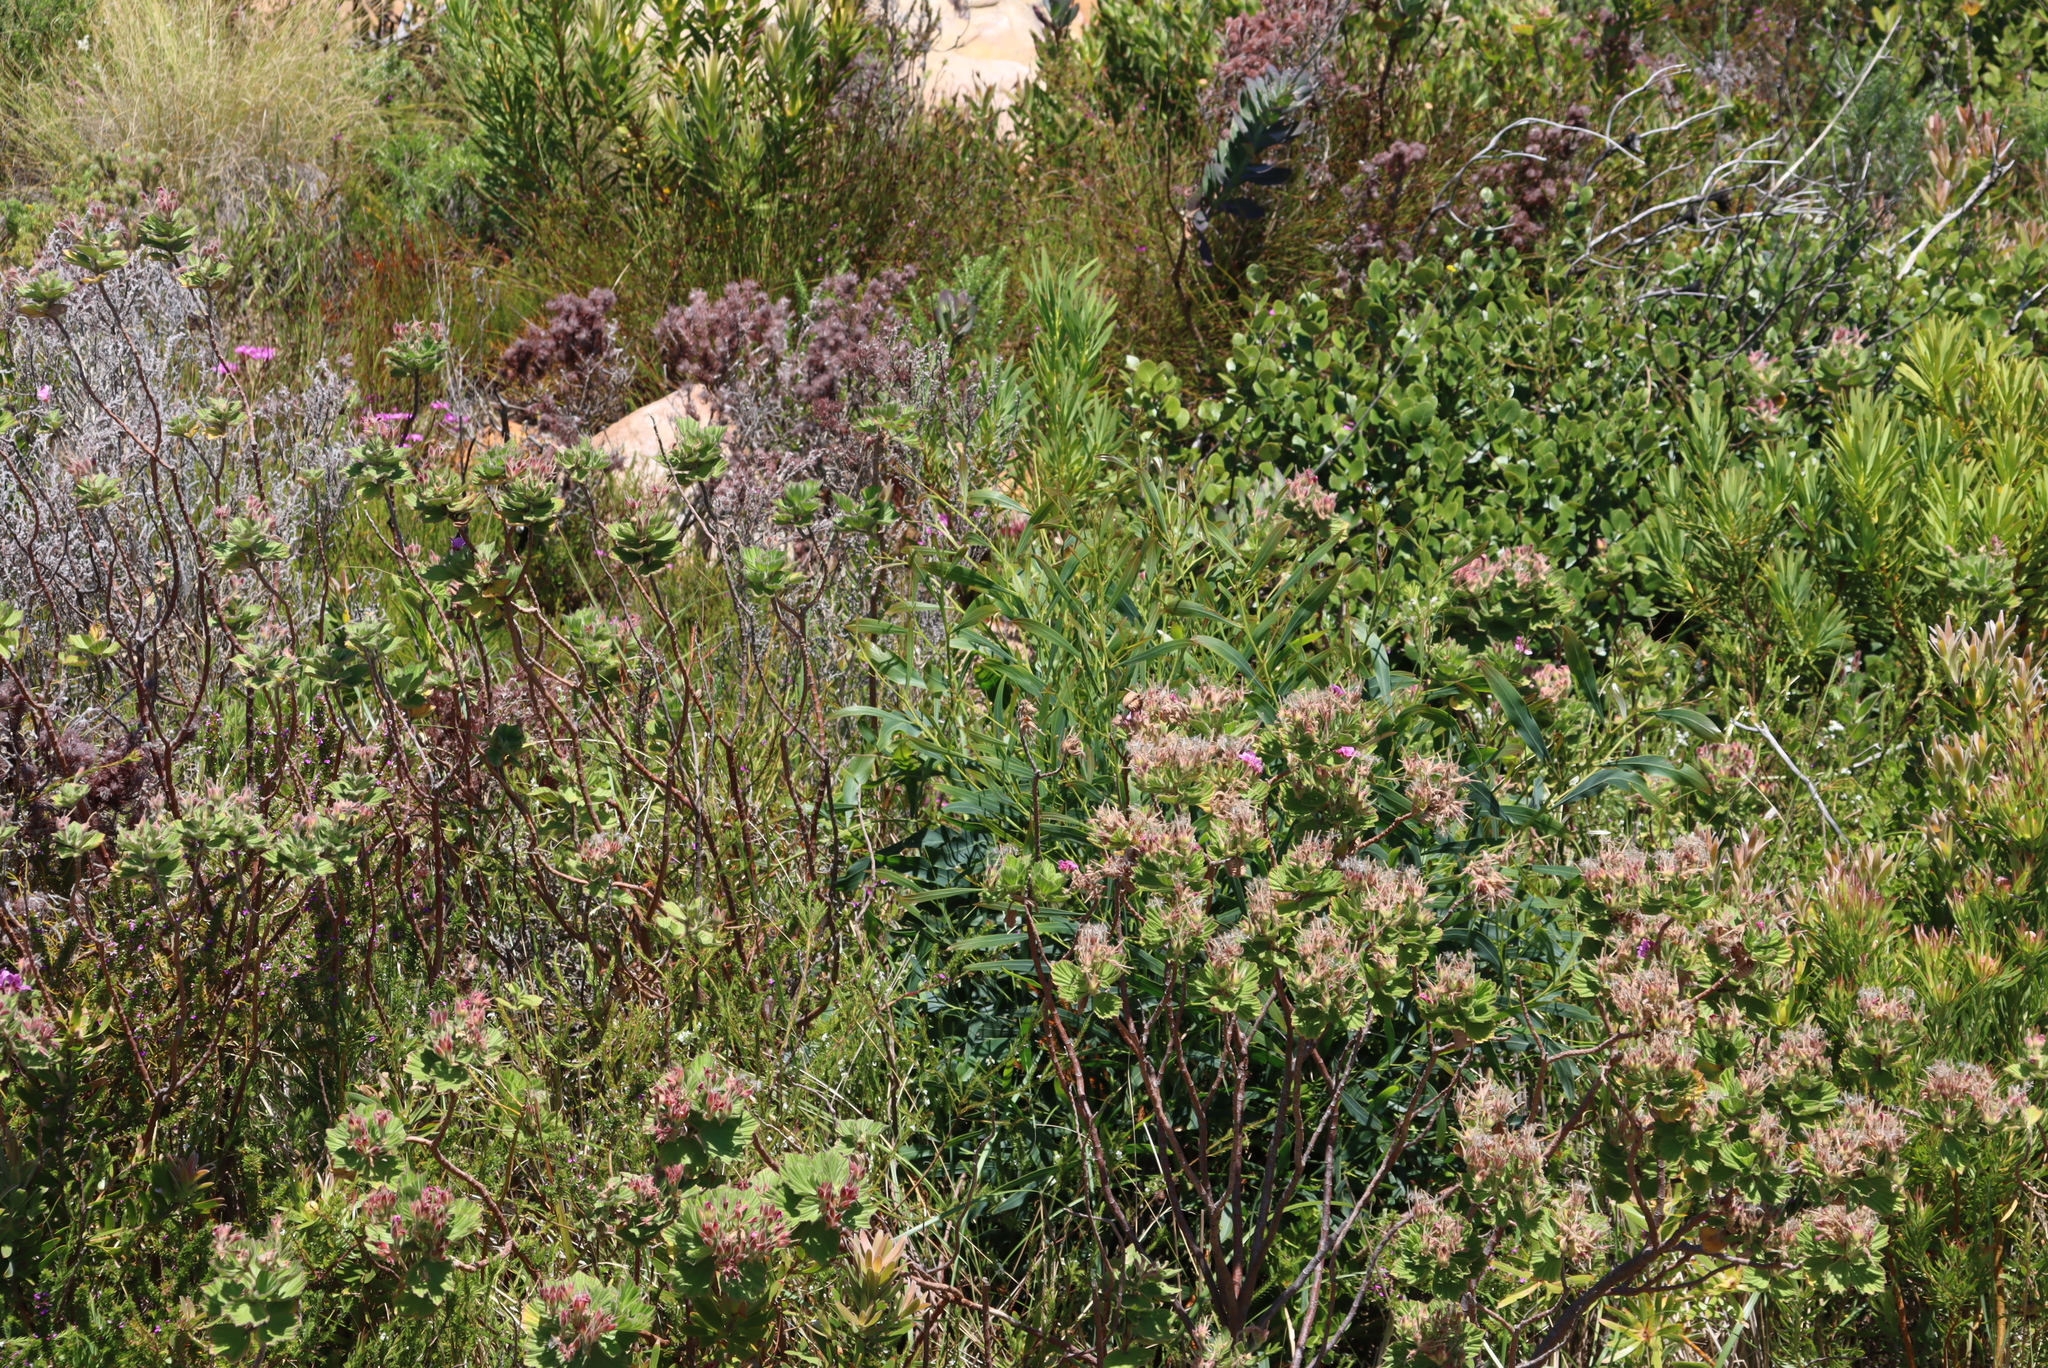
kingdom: Plantae
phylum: Tracheophyta
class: Magnoliopsida
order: Fabales
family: Fabaceae
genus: Acacia
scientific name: Acacia saligna
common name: Orange wattle
